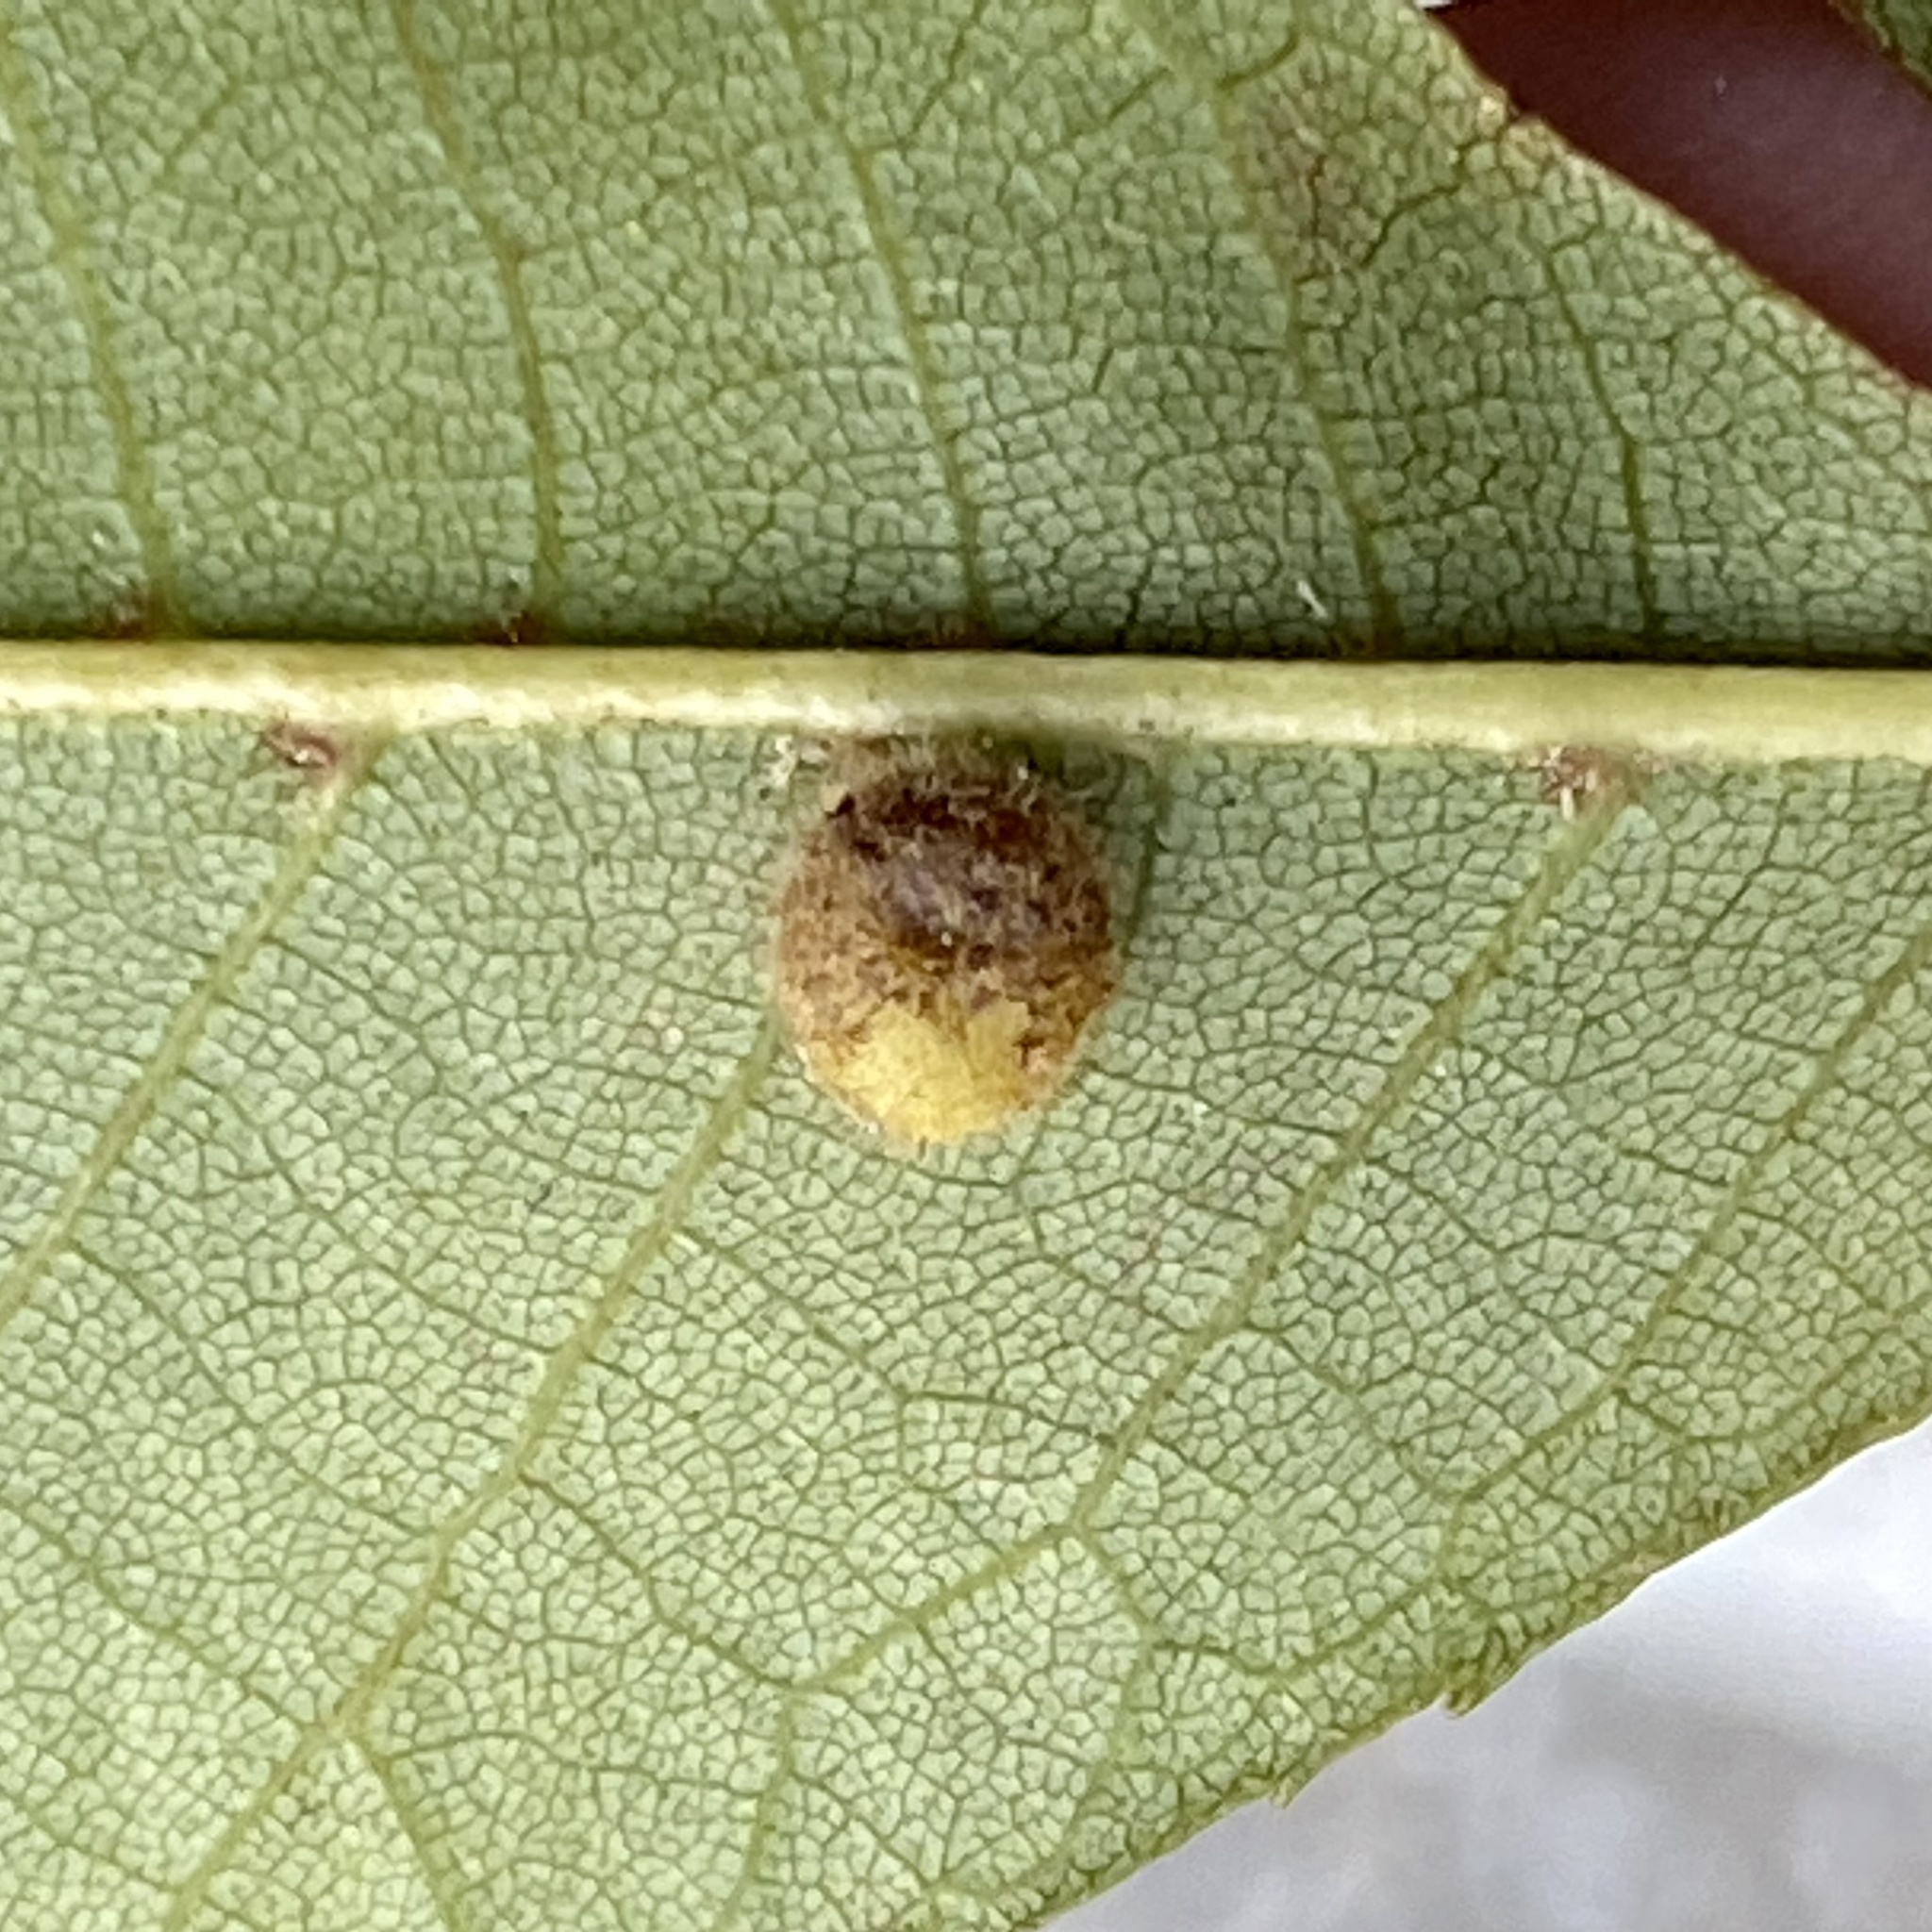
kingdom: Animalia
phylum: Arthropoda
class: Insecta
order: Diptera
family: Cecidomyiidae
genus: Caryomyia
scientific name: Caryomyia thompsoni
